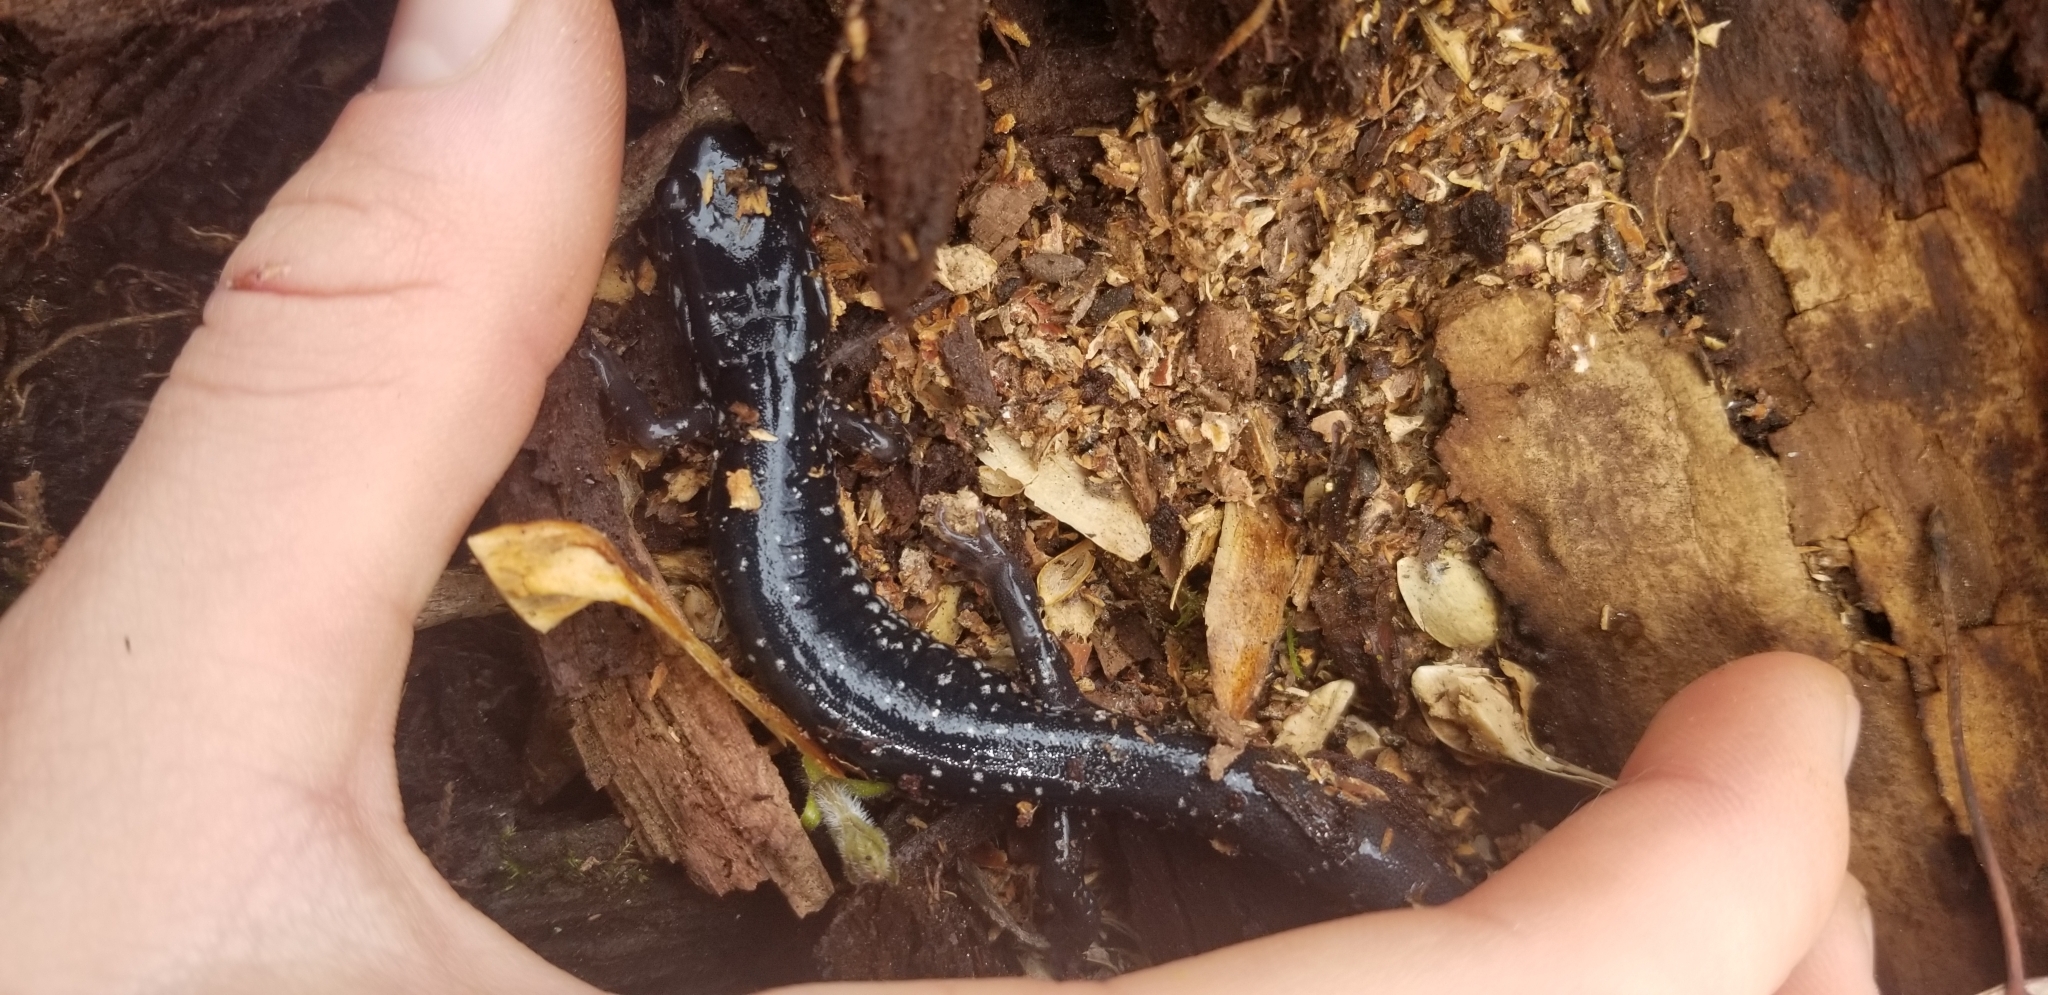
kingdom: Animalia
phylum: Chordata
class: Amphibia
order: Caudata
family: Plethodontidae
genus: Plethodon
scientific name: Plethodon cylindraceus
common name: White-spotted slimy salamander
